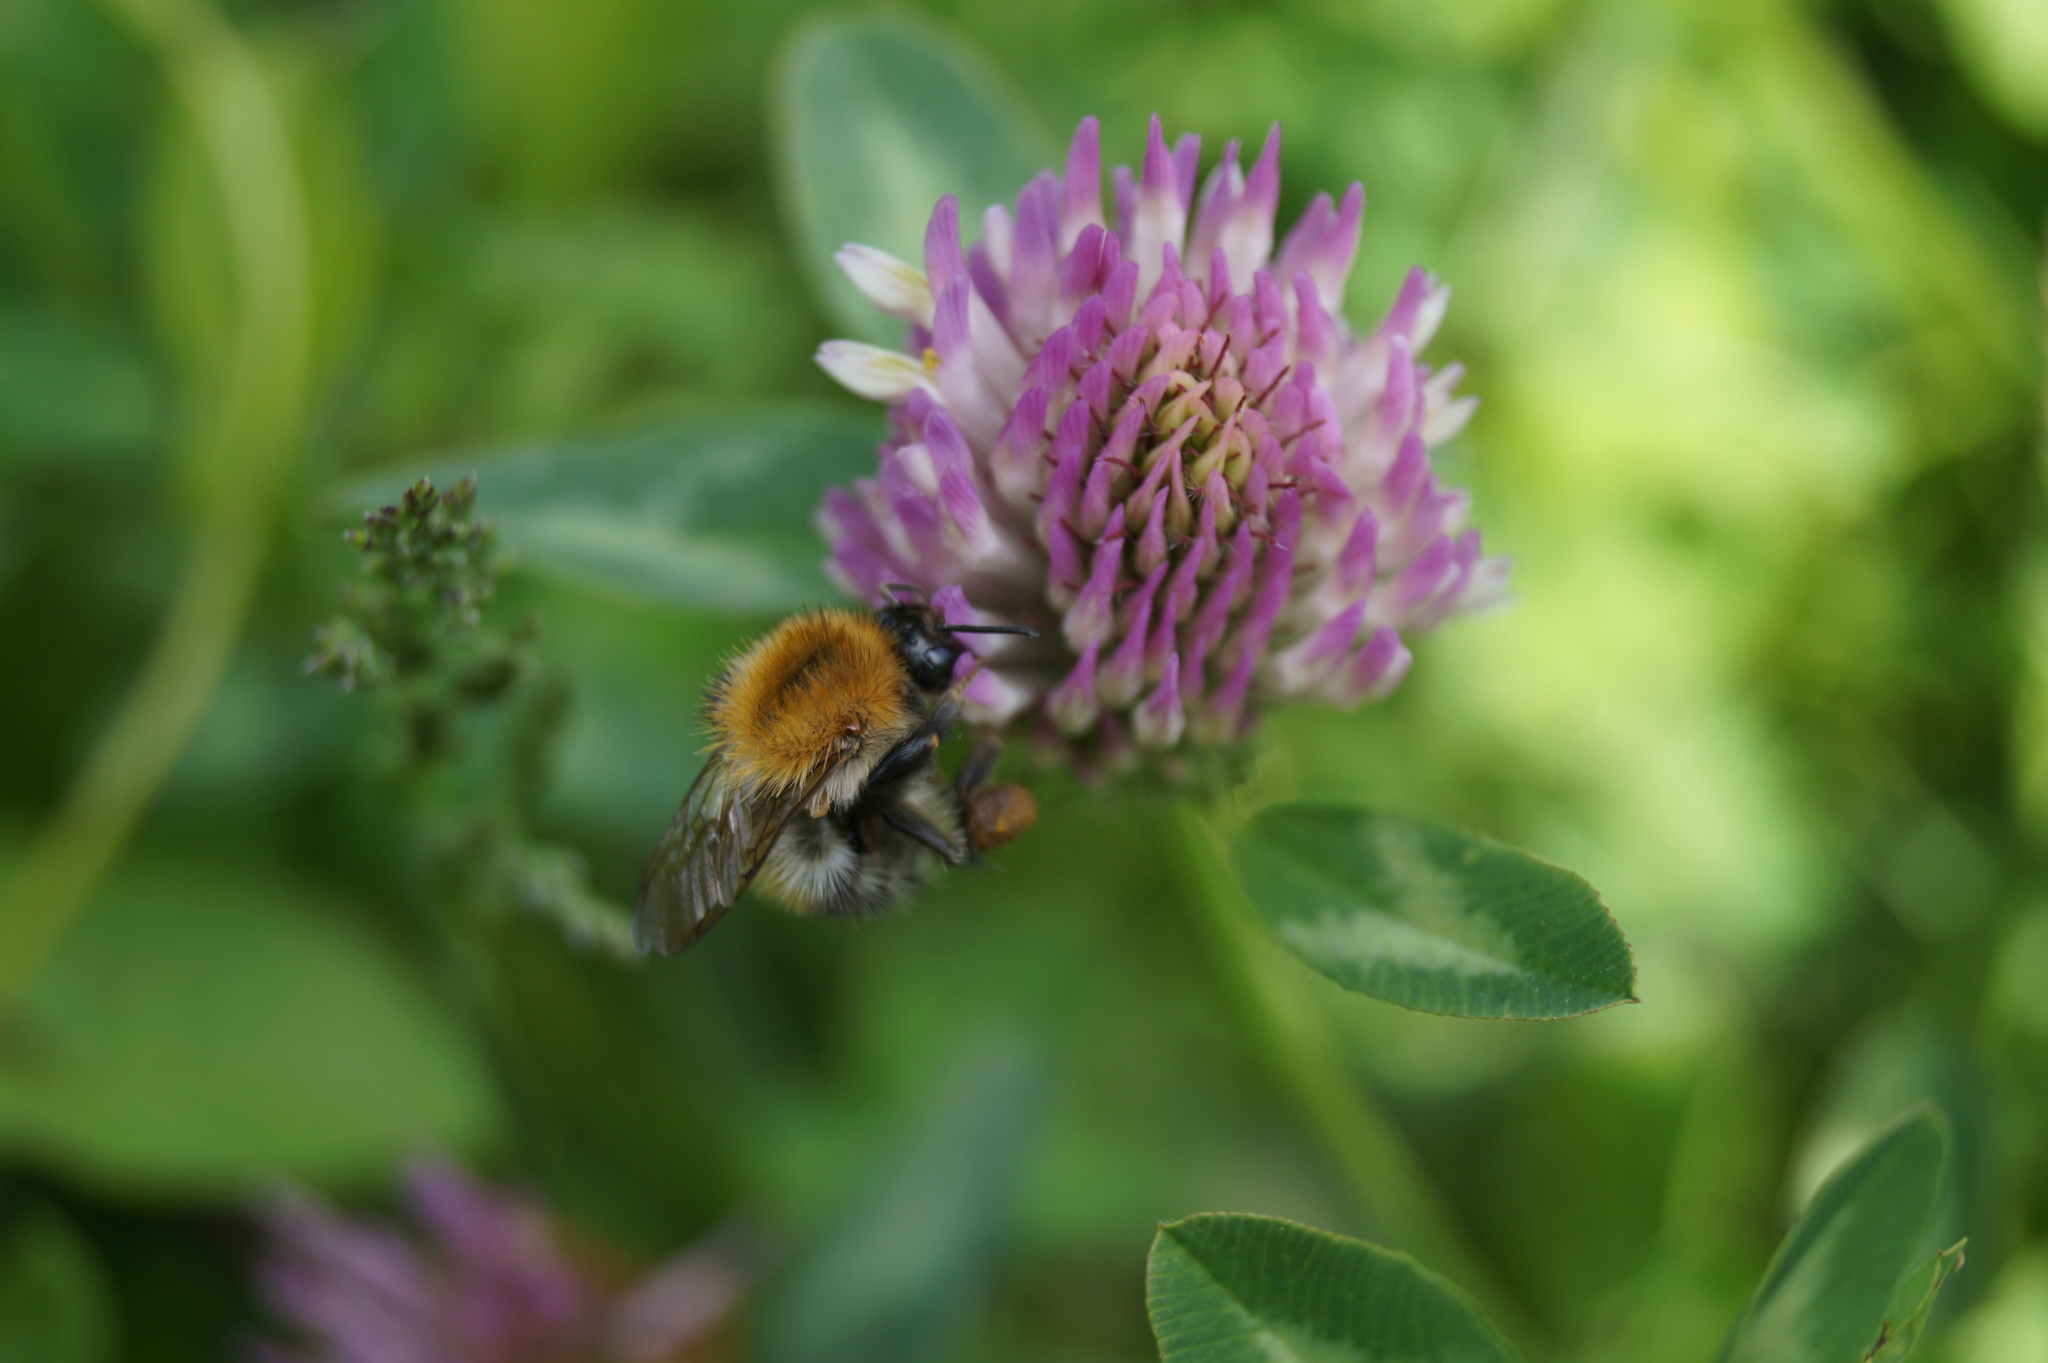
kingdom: Animalia
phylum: Arthropoda
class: Insecta
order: Hymenoptera
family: Apidae
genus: Bombus
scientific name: Bombus pascuorum
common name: Common carder bee
